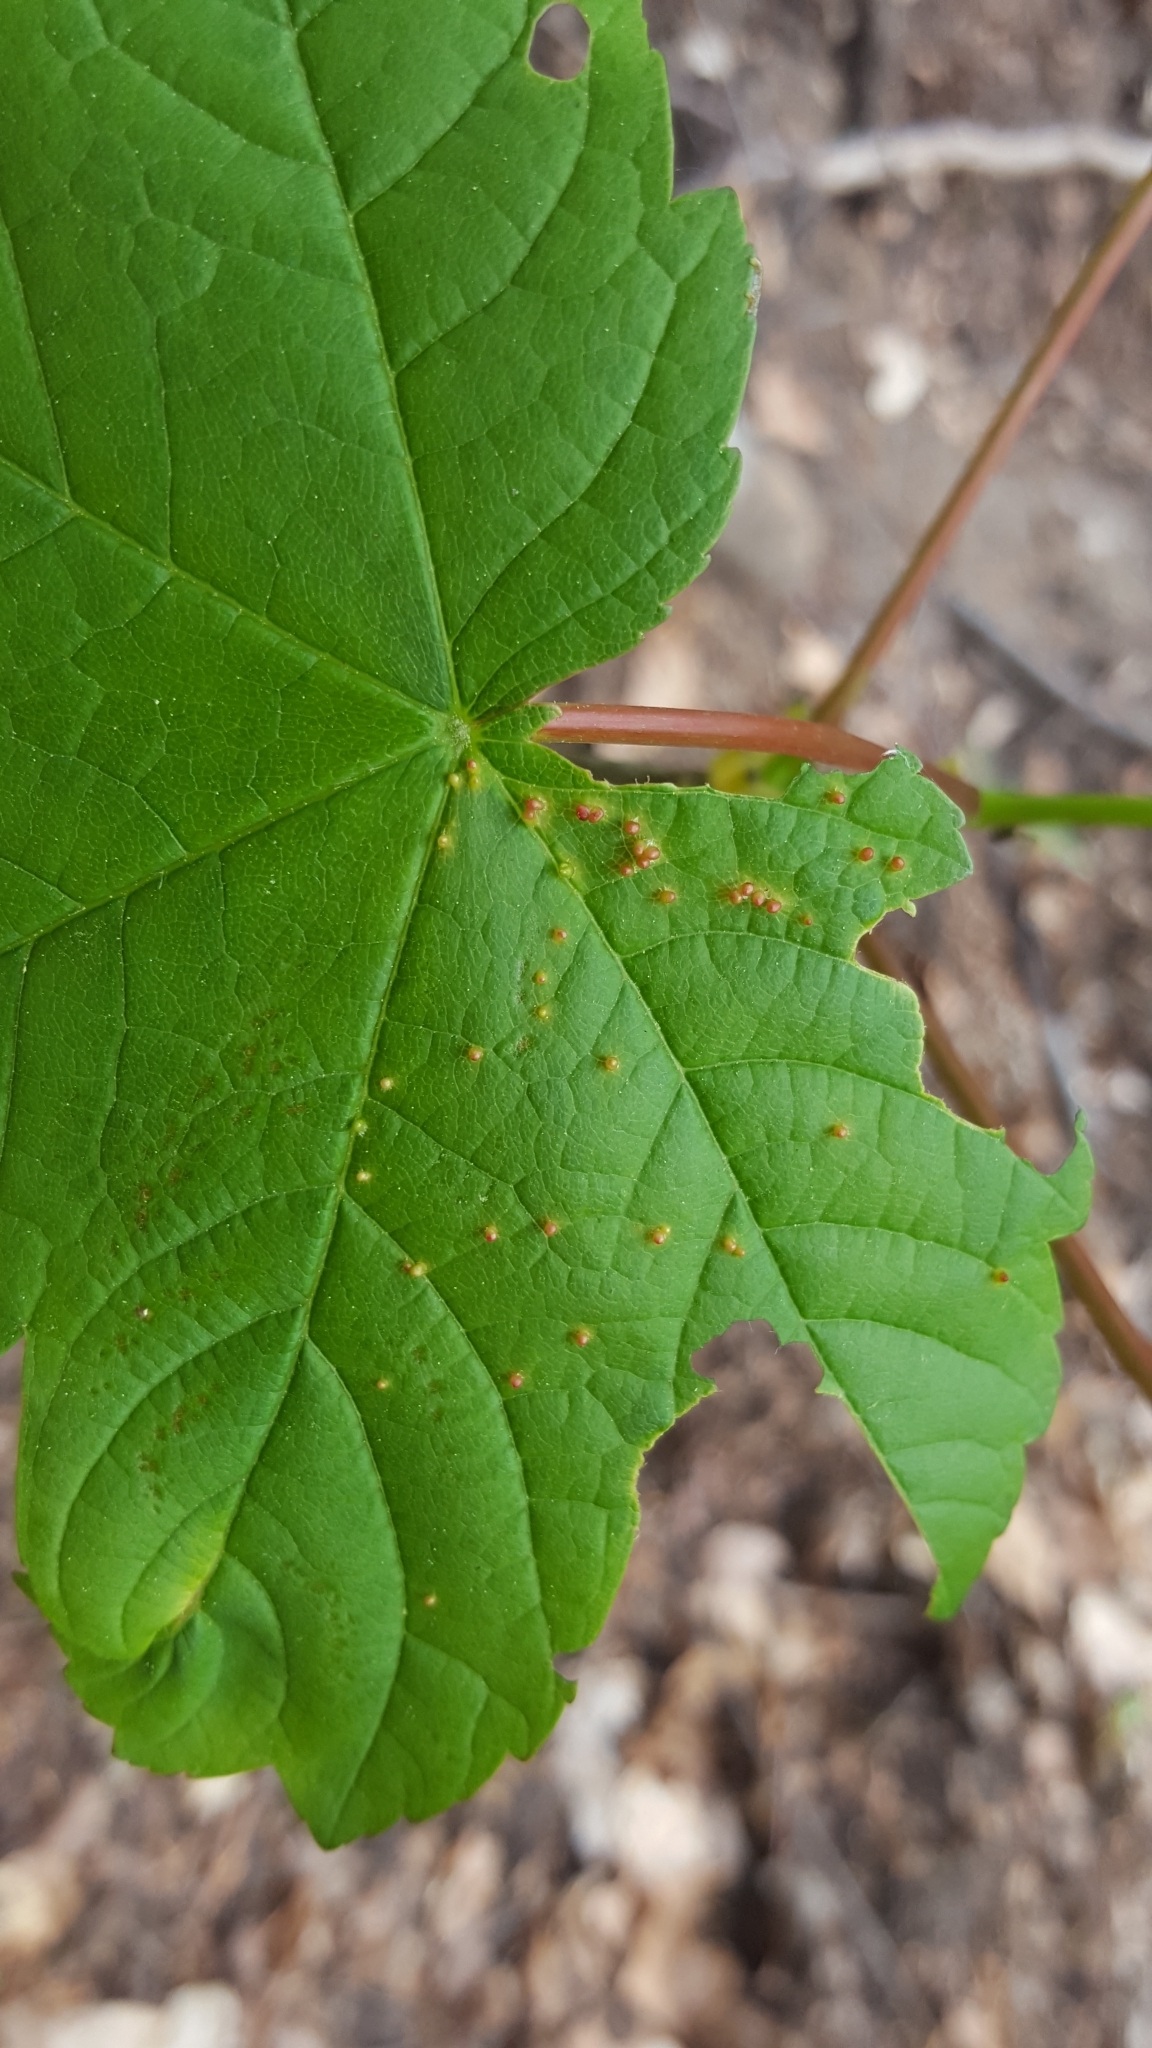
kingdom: Animalia
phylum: Arthropoda
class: Arachnida
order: Trombidiformes
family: Eriophyidae
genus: Aceria
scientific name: Aceria cephaloneus
